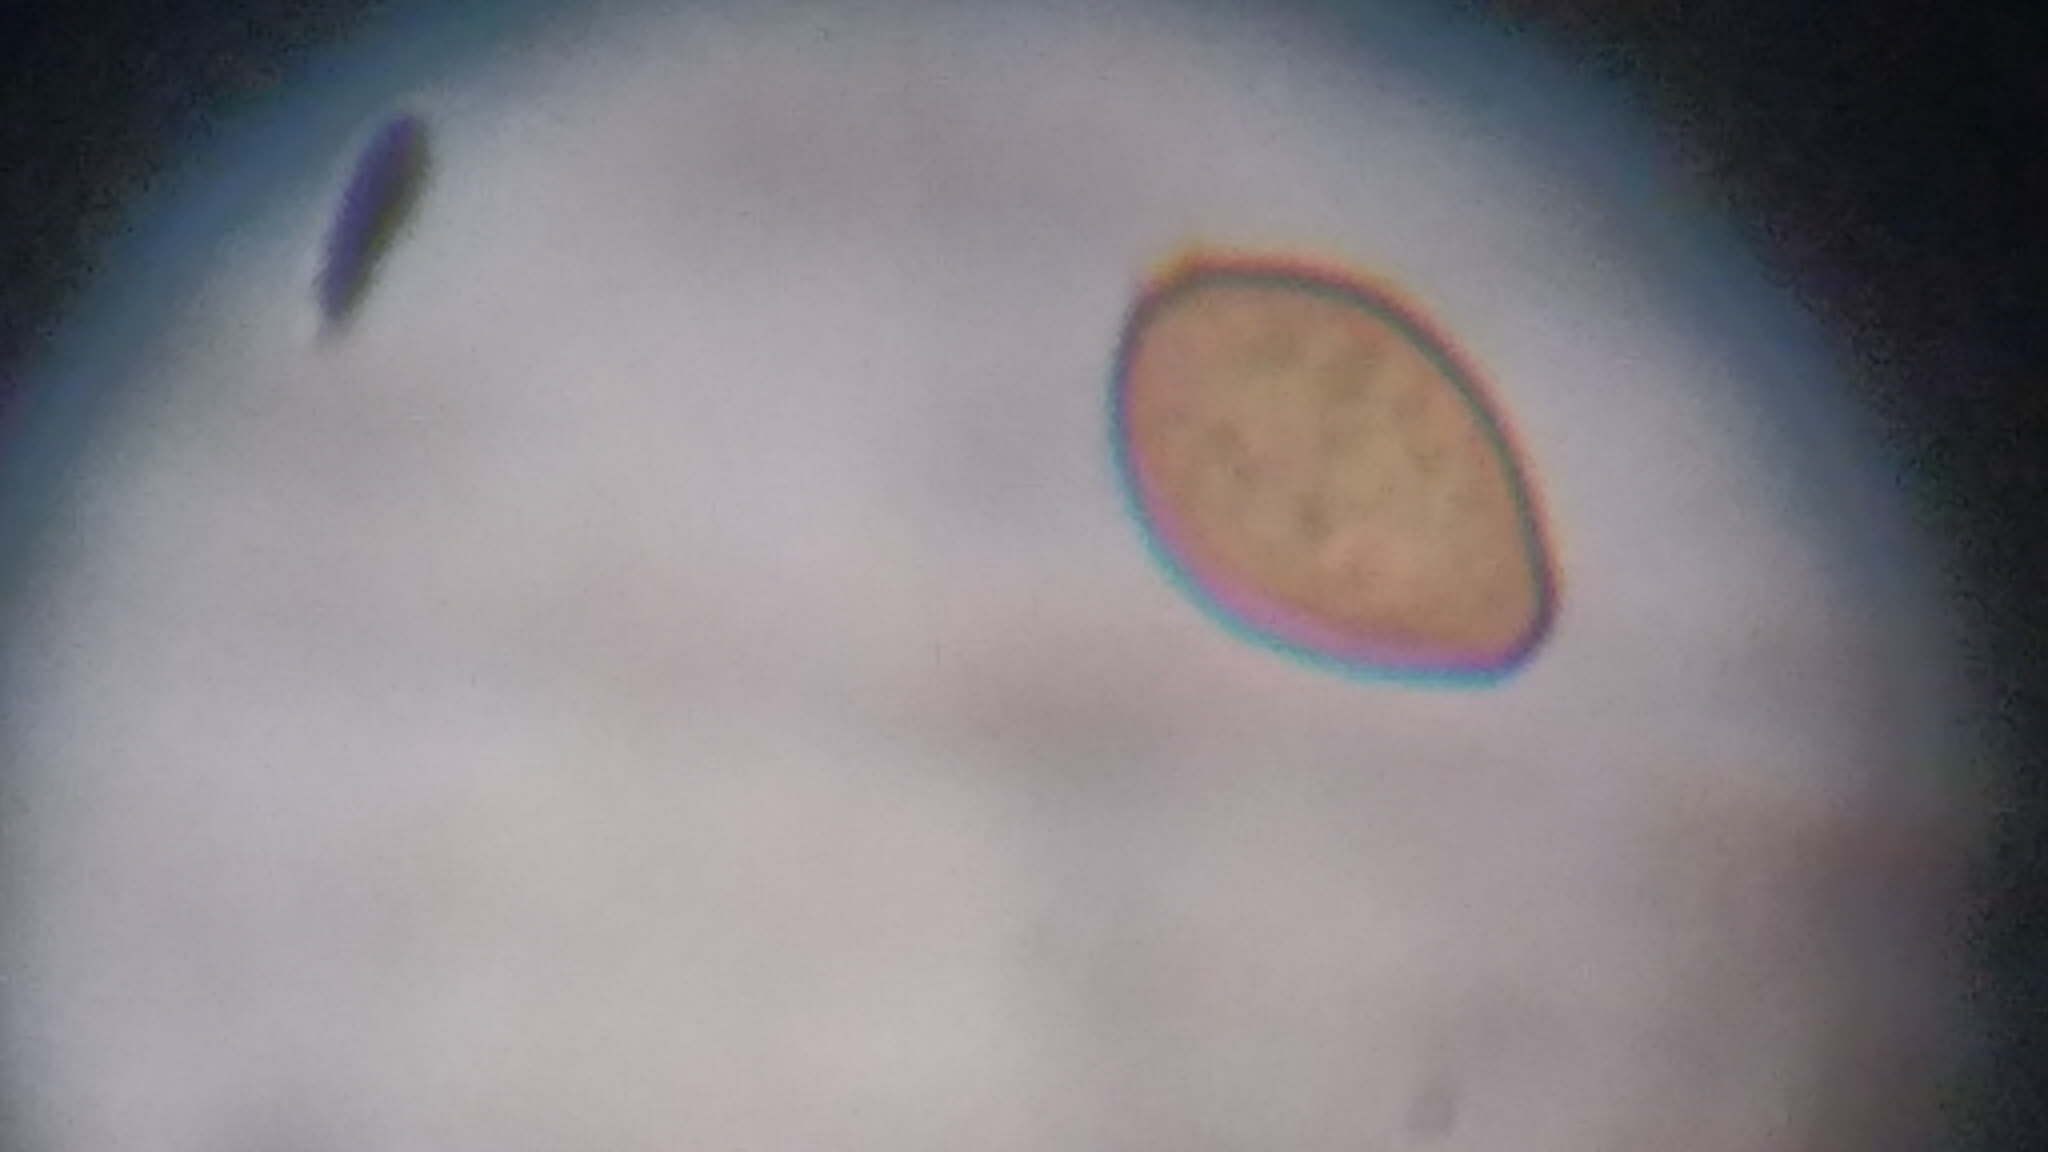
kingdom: Fungi
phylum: Basidiomycota
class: Agaricomycetes
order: Russulales
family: Xenasmataceae
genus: Xenasmatella
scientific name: Xenasmatella vaga
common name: Yellow cobweb
